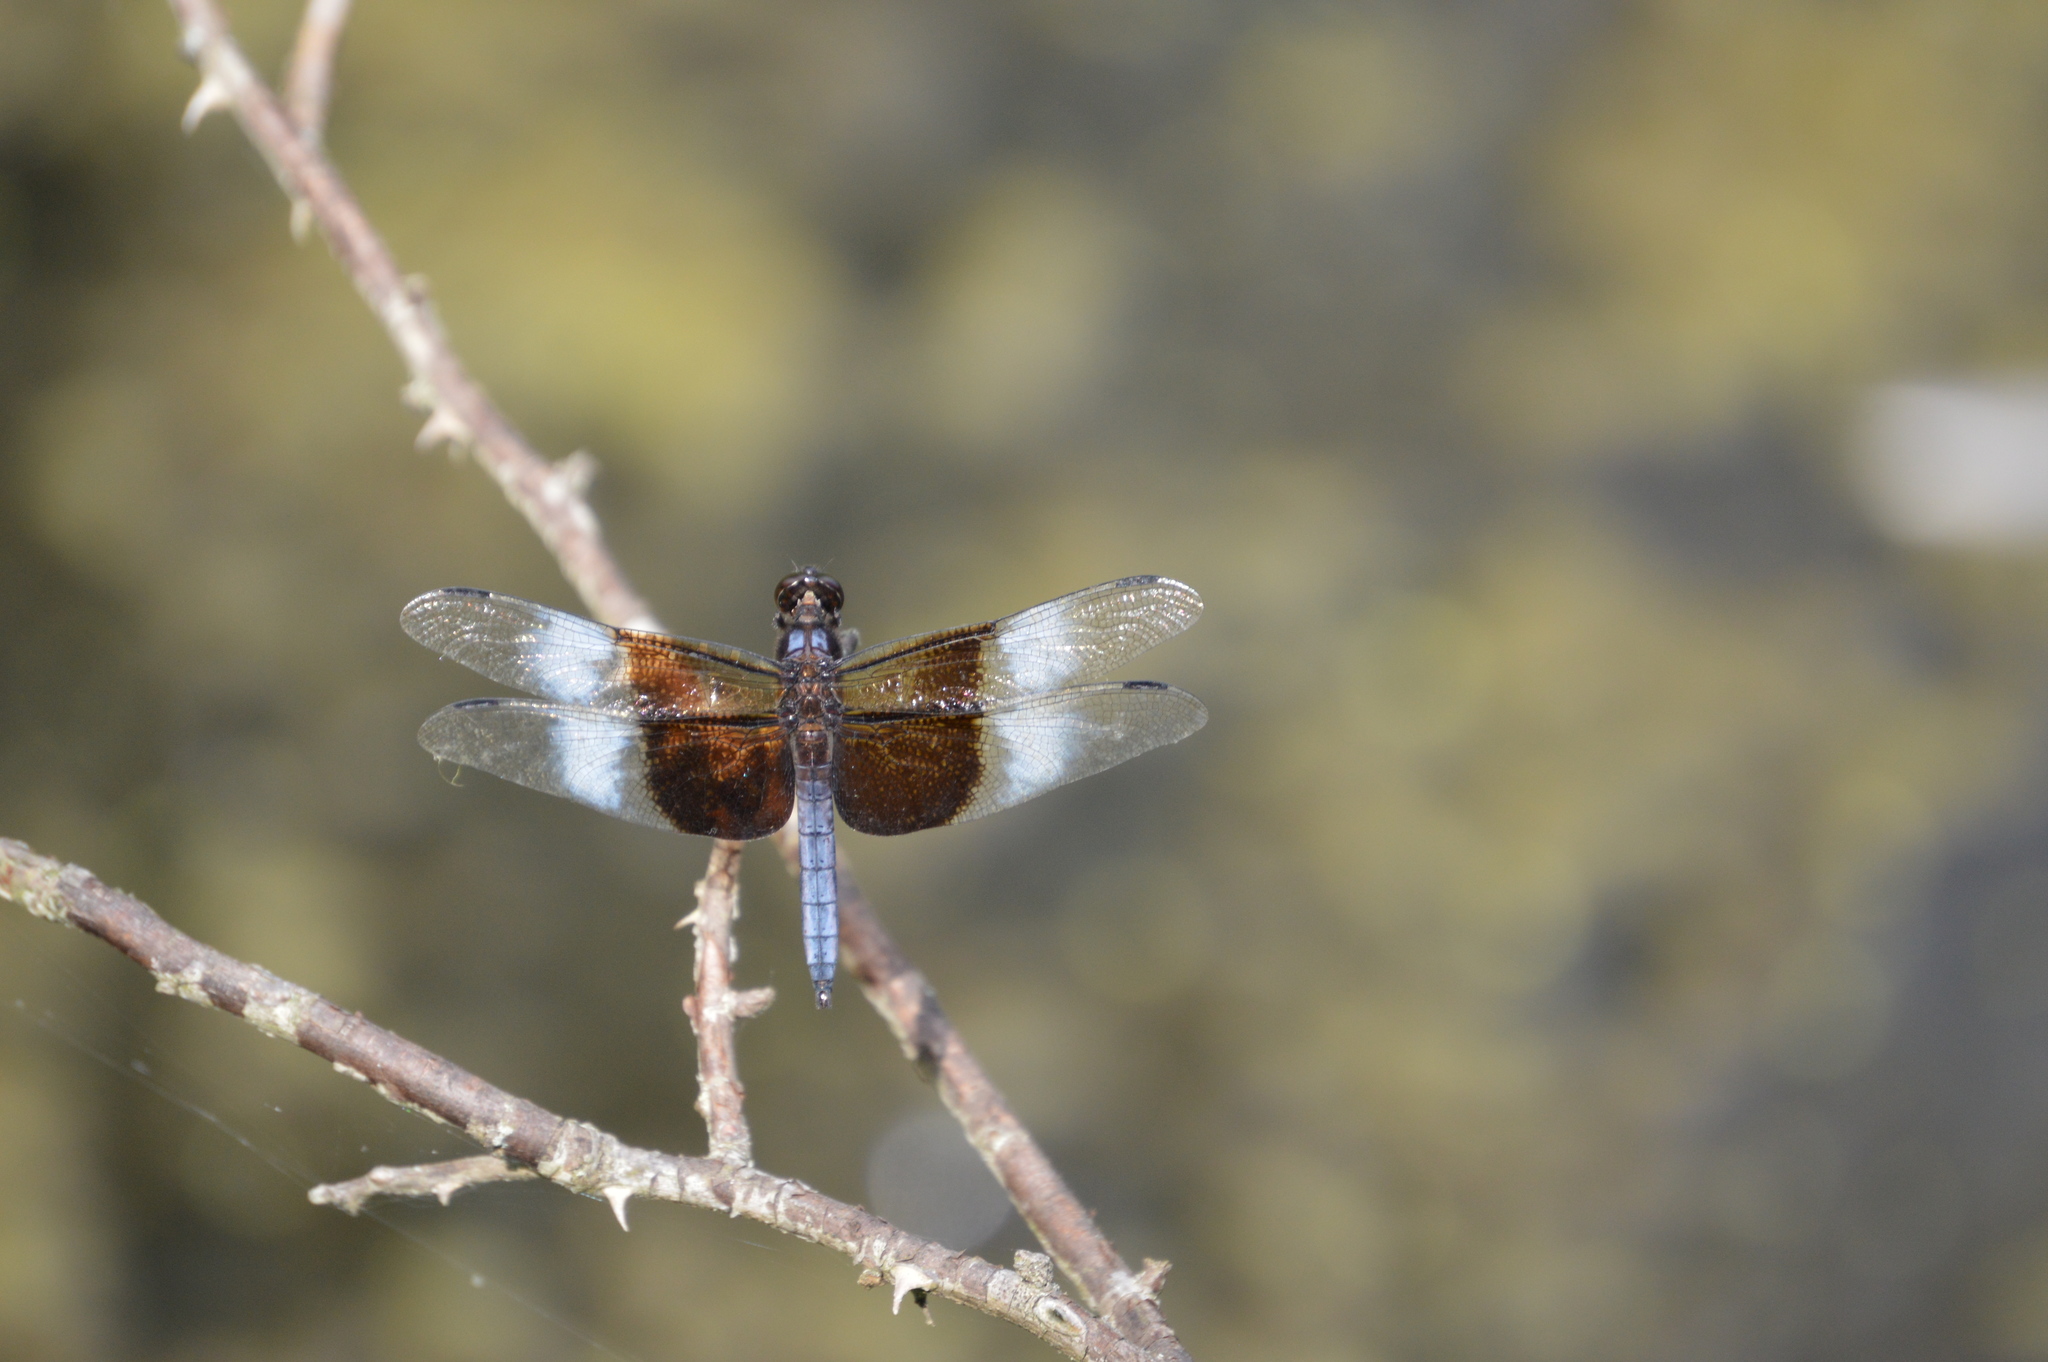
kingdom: Animalia
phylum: Arthropoda
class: Insecta
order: Odonata
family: Libellulidae
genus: Libellula
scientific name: Libellula luctuosa
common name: Widow skimmer
